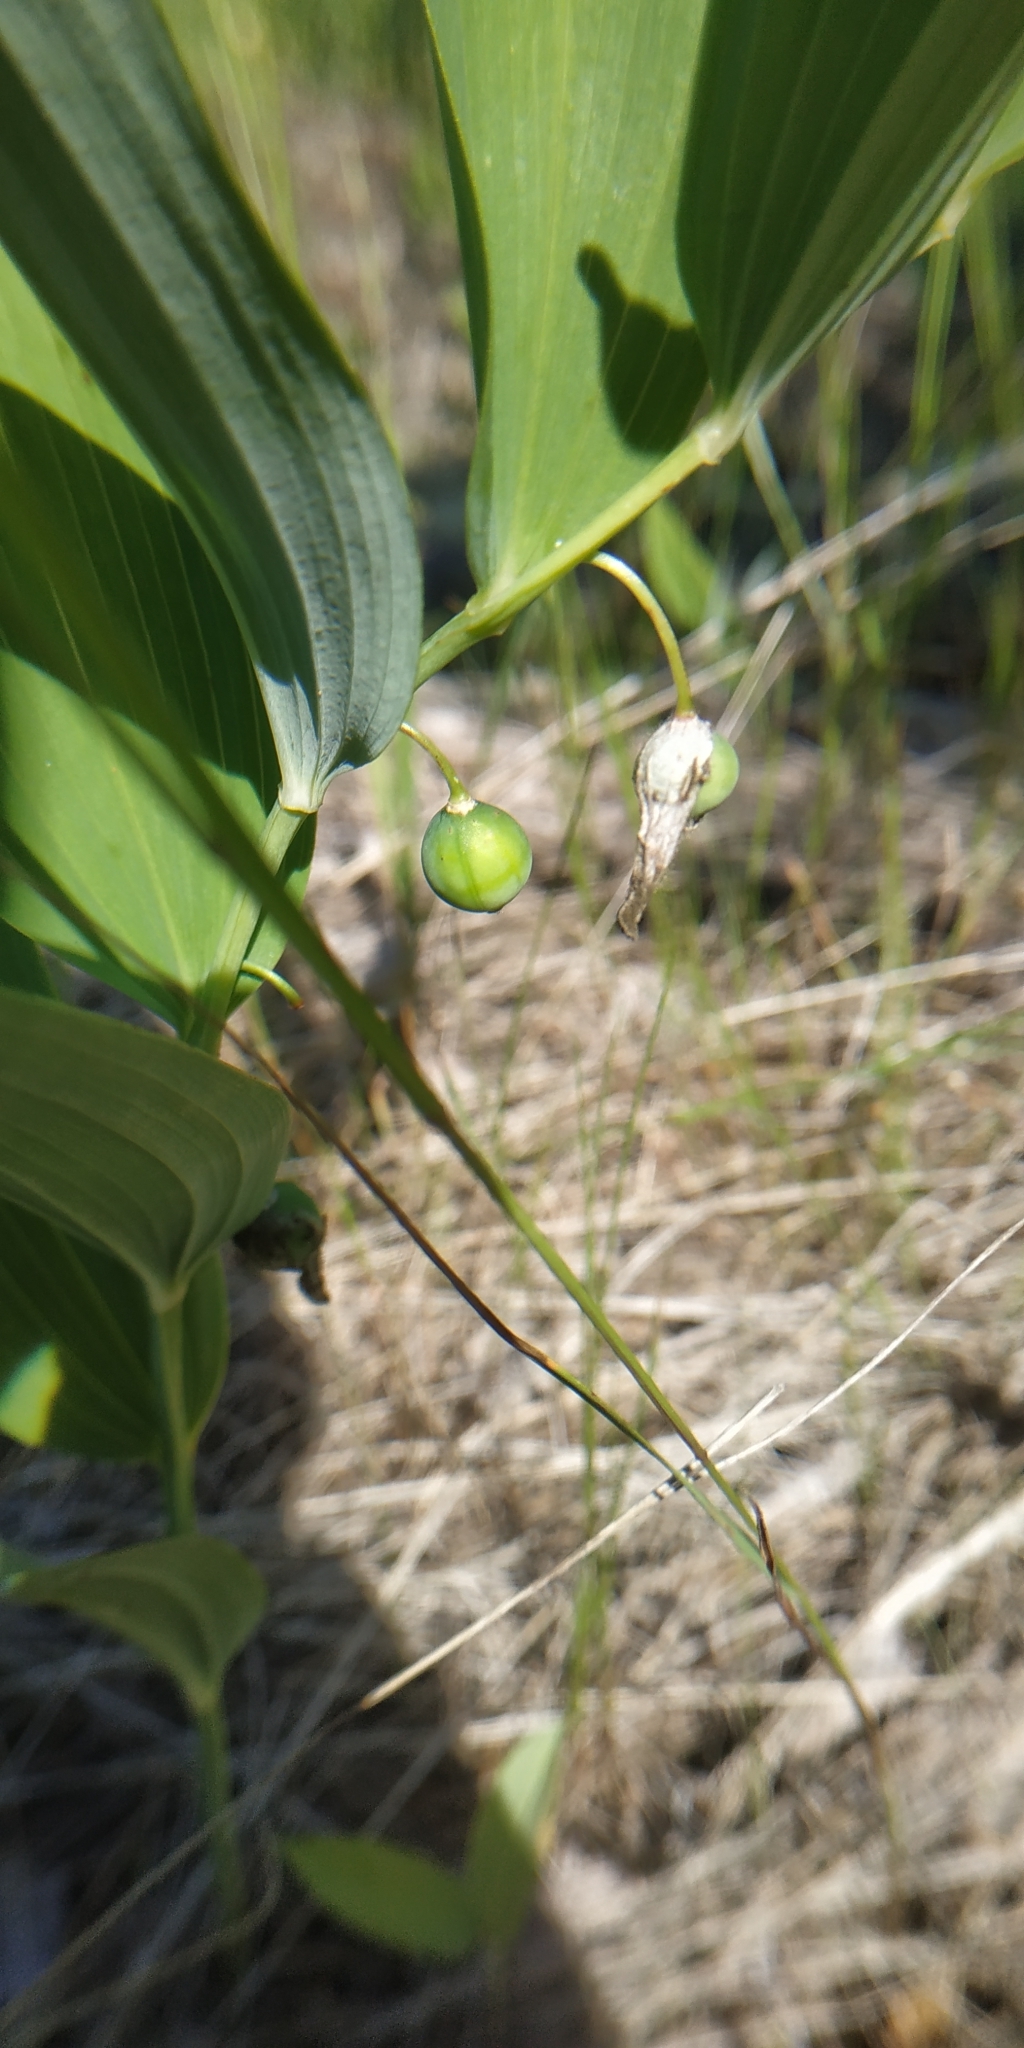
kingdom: Plantae
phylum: Tracheophyta
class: Liliopsida
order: Asparagales
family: Asparagaceae
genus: Polygonatum
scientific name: Polygonatum odoratum
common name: Angular solomon's-seal
